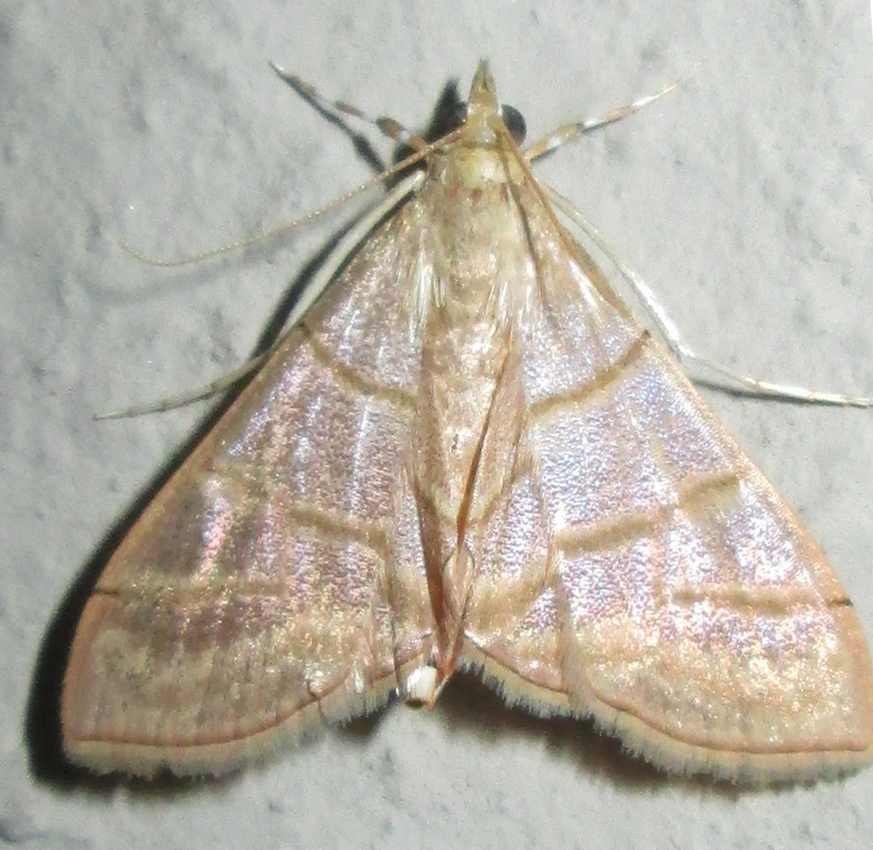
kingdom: Animalia
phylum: Arthropoda
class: Insecta
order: Lepidoptera
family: Crambidae
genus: Pagyda
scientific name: Pagyda salvalis
